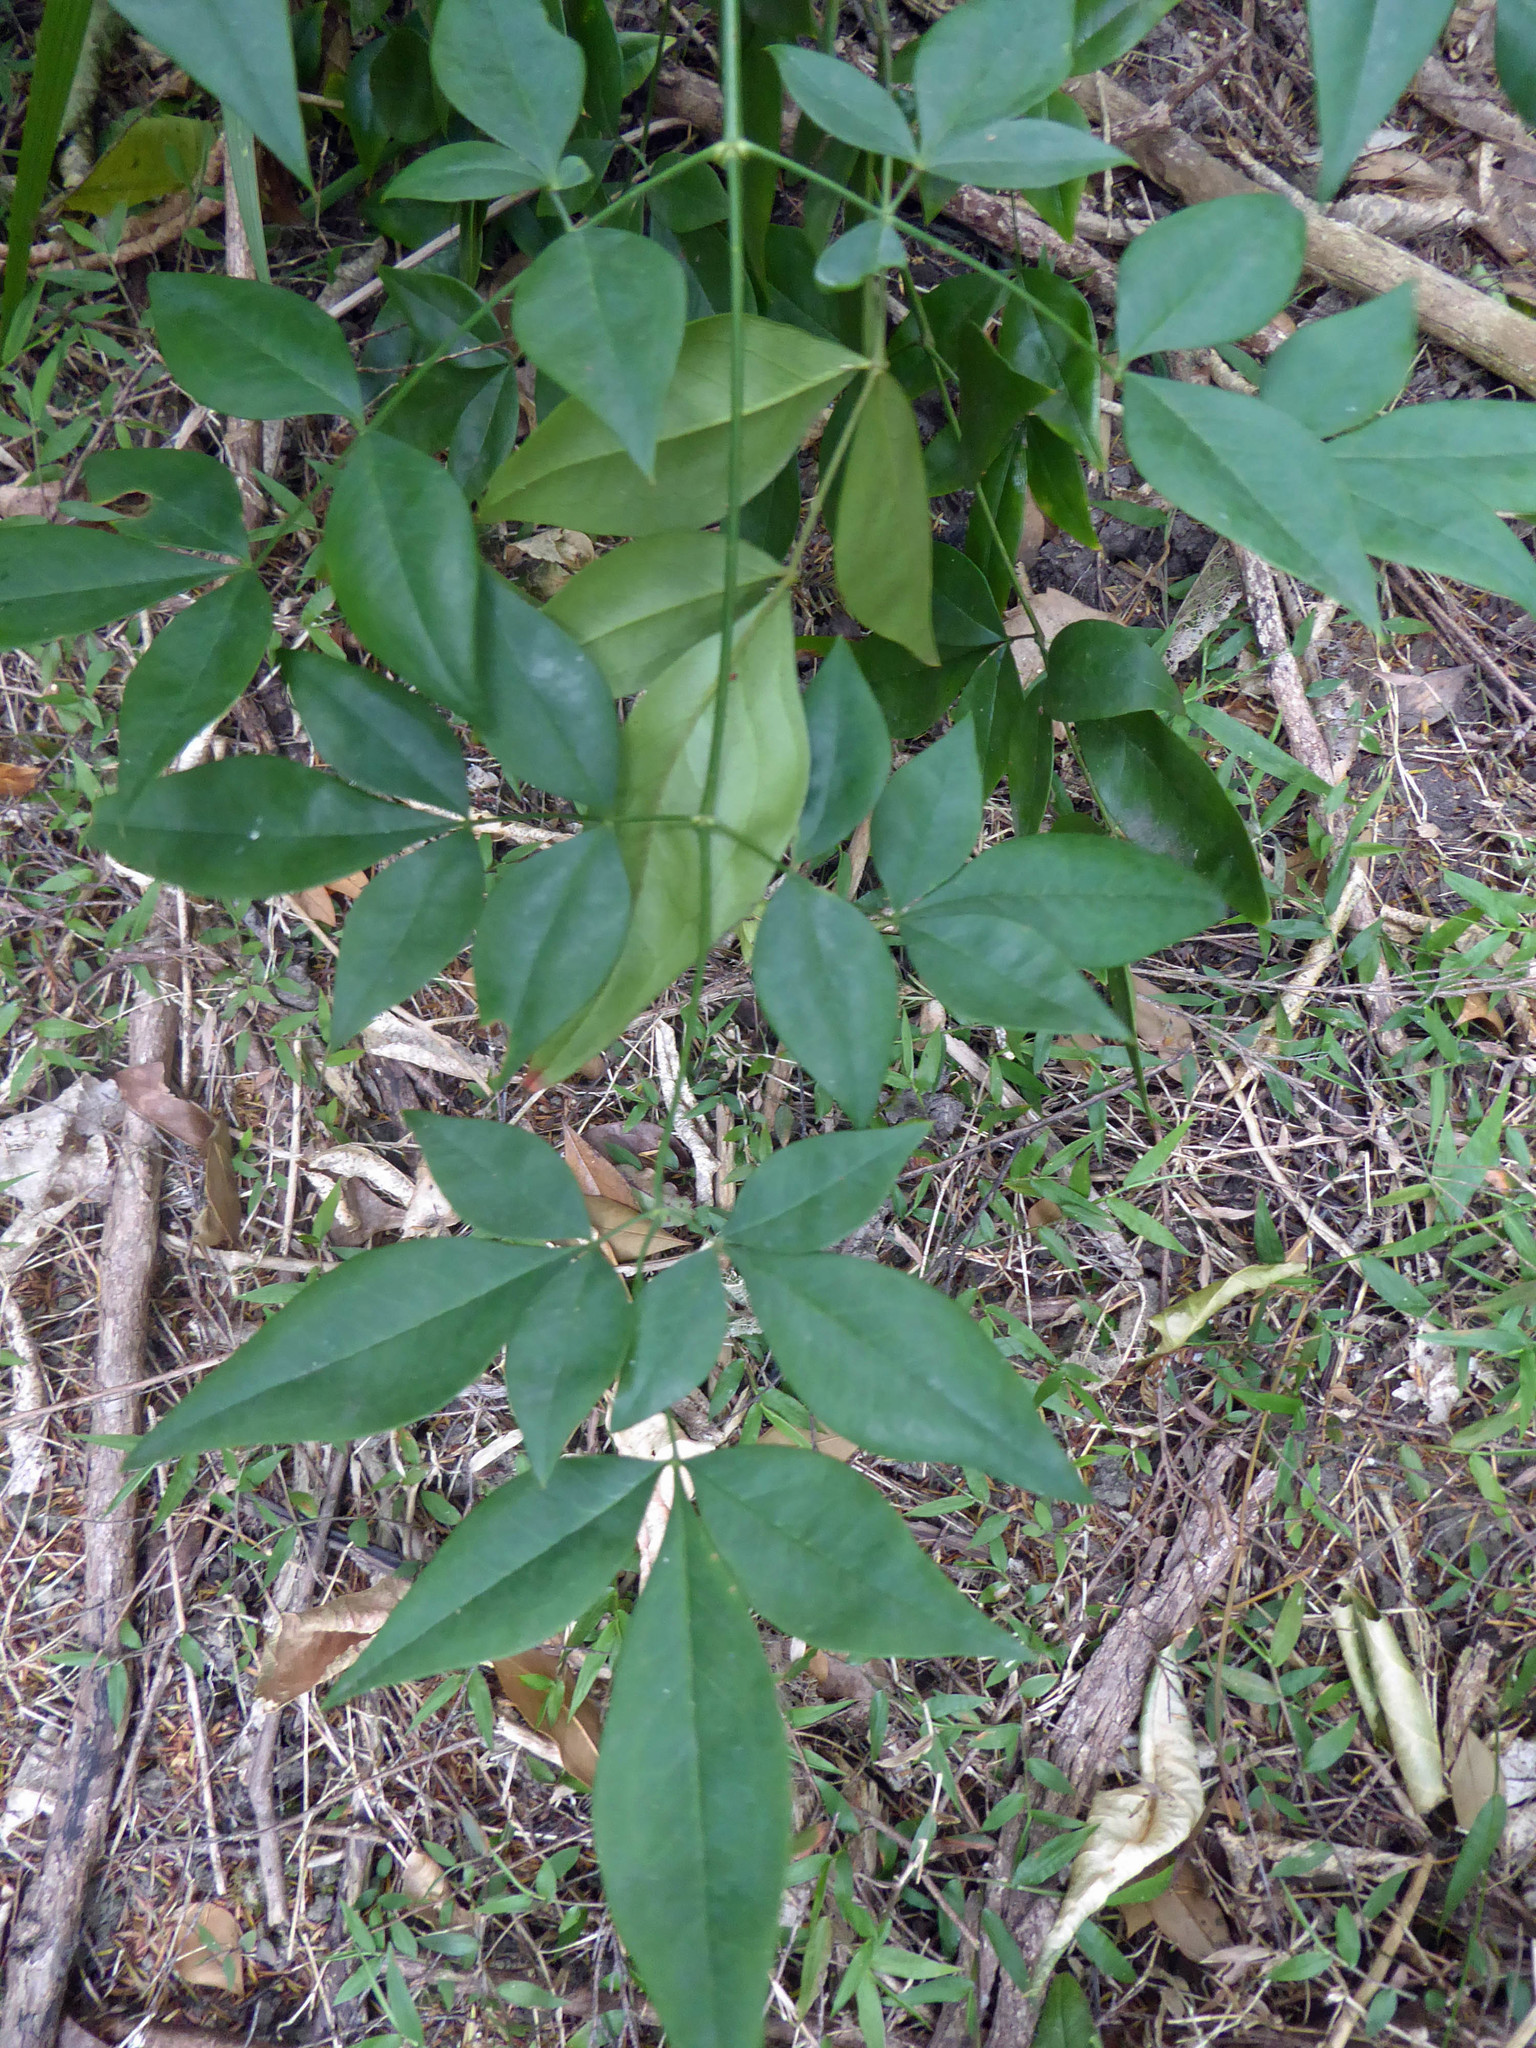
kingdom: Plantae
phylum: Tracheophyta
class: Magnoliopsida
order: Ranunculales
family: Berberidaceae
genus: Nandina
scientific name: Nandina domestica
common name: Sacred bamboo
